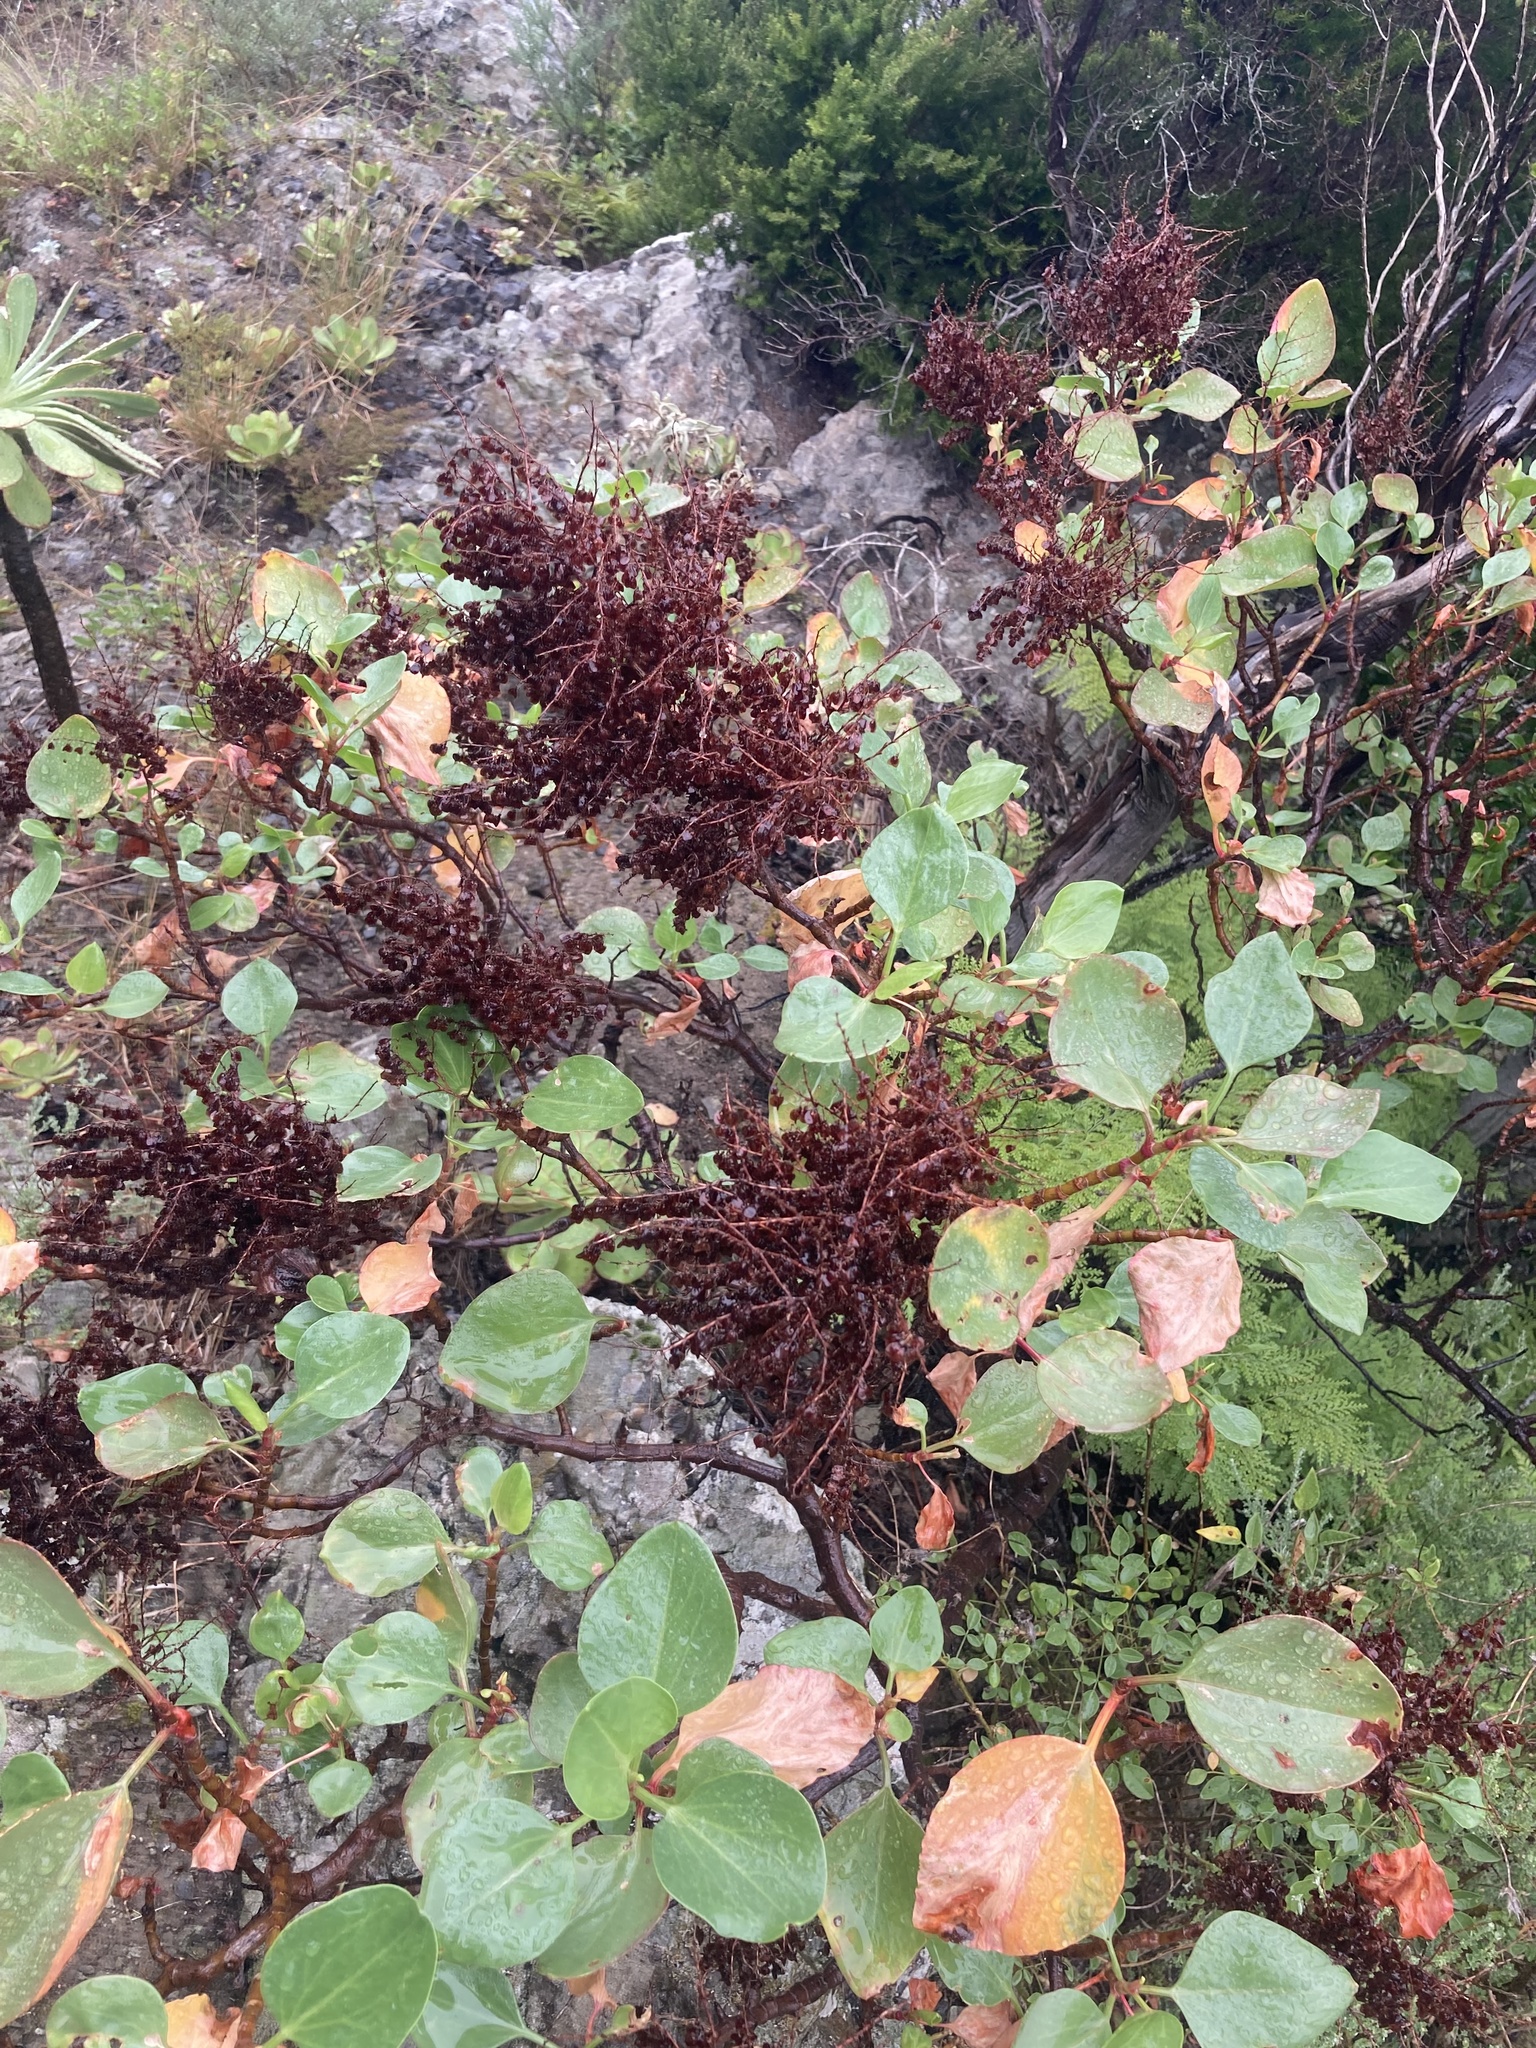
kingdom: Plantae
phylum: Tracheophyta
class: Magnoliopsida
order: Caryophyllales
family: Polygonaceae
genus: Rumex
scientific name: Rumex lunaria
